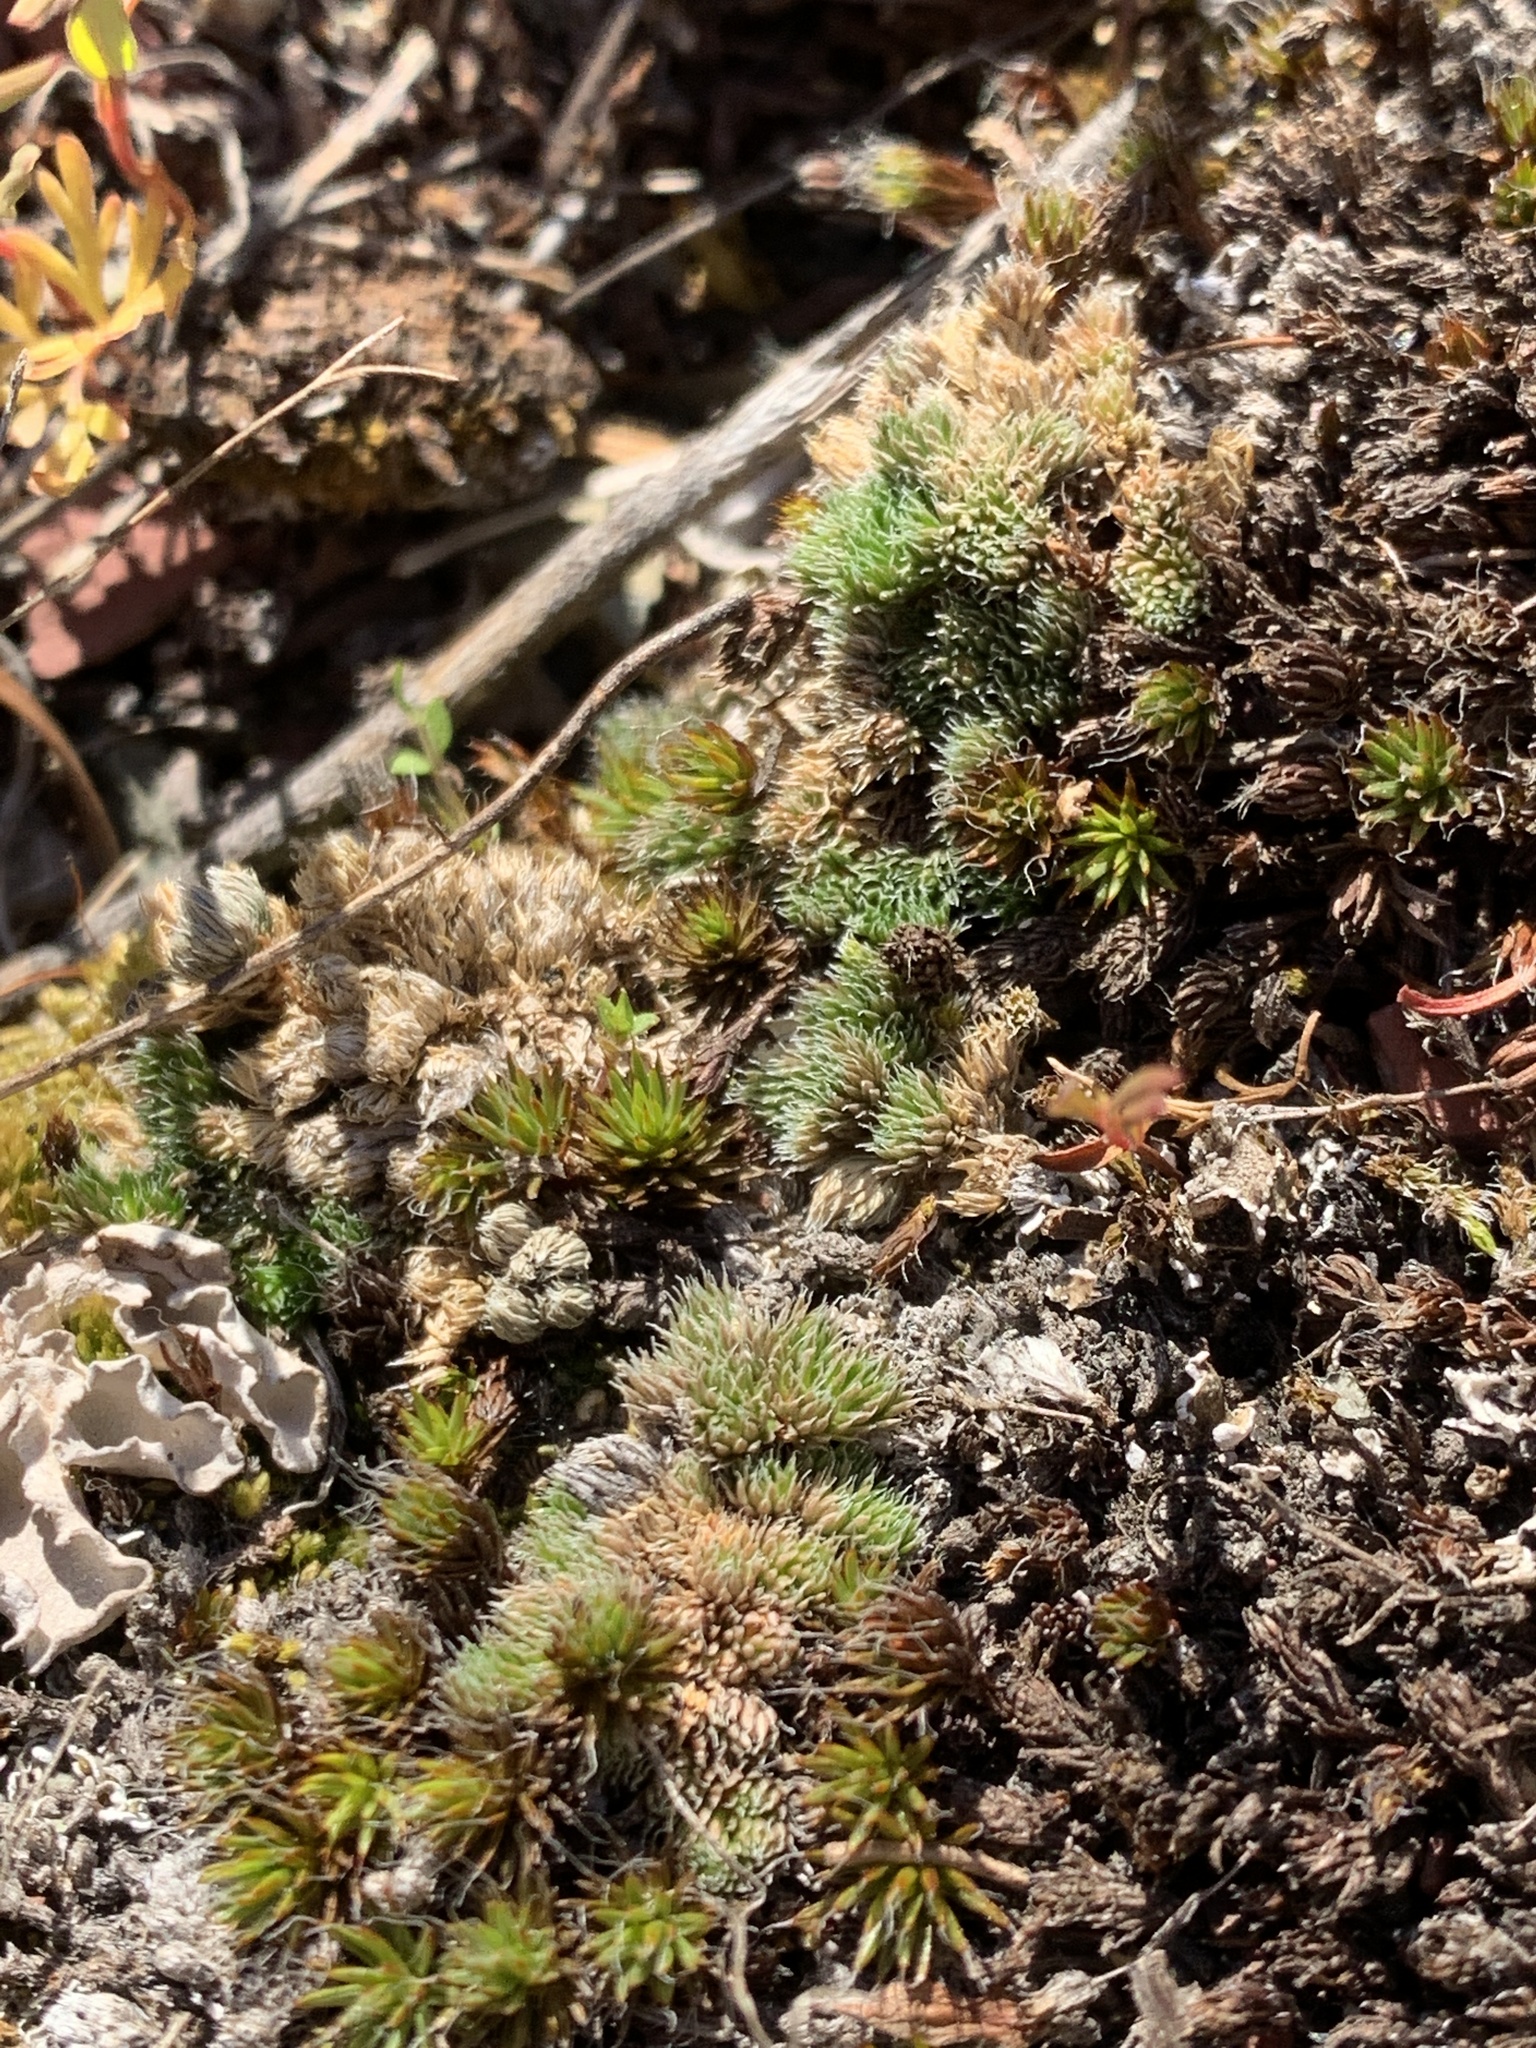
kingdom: Plantae
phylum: Tracheophyta
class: Lycopodiopsida
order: Selaginellales
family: Selaginellaceae
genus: Selaginella
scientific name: Selaginella densa
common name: Mountain spike-moss
